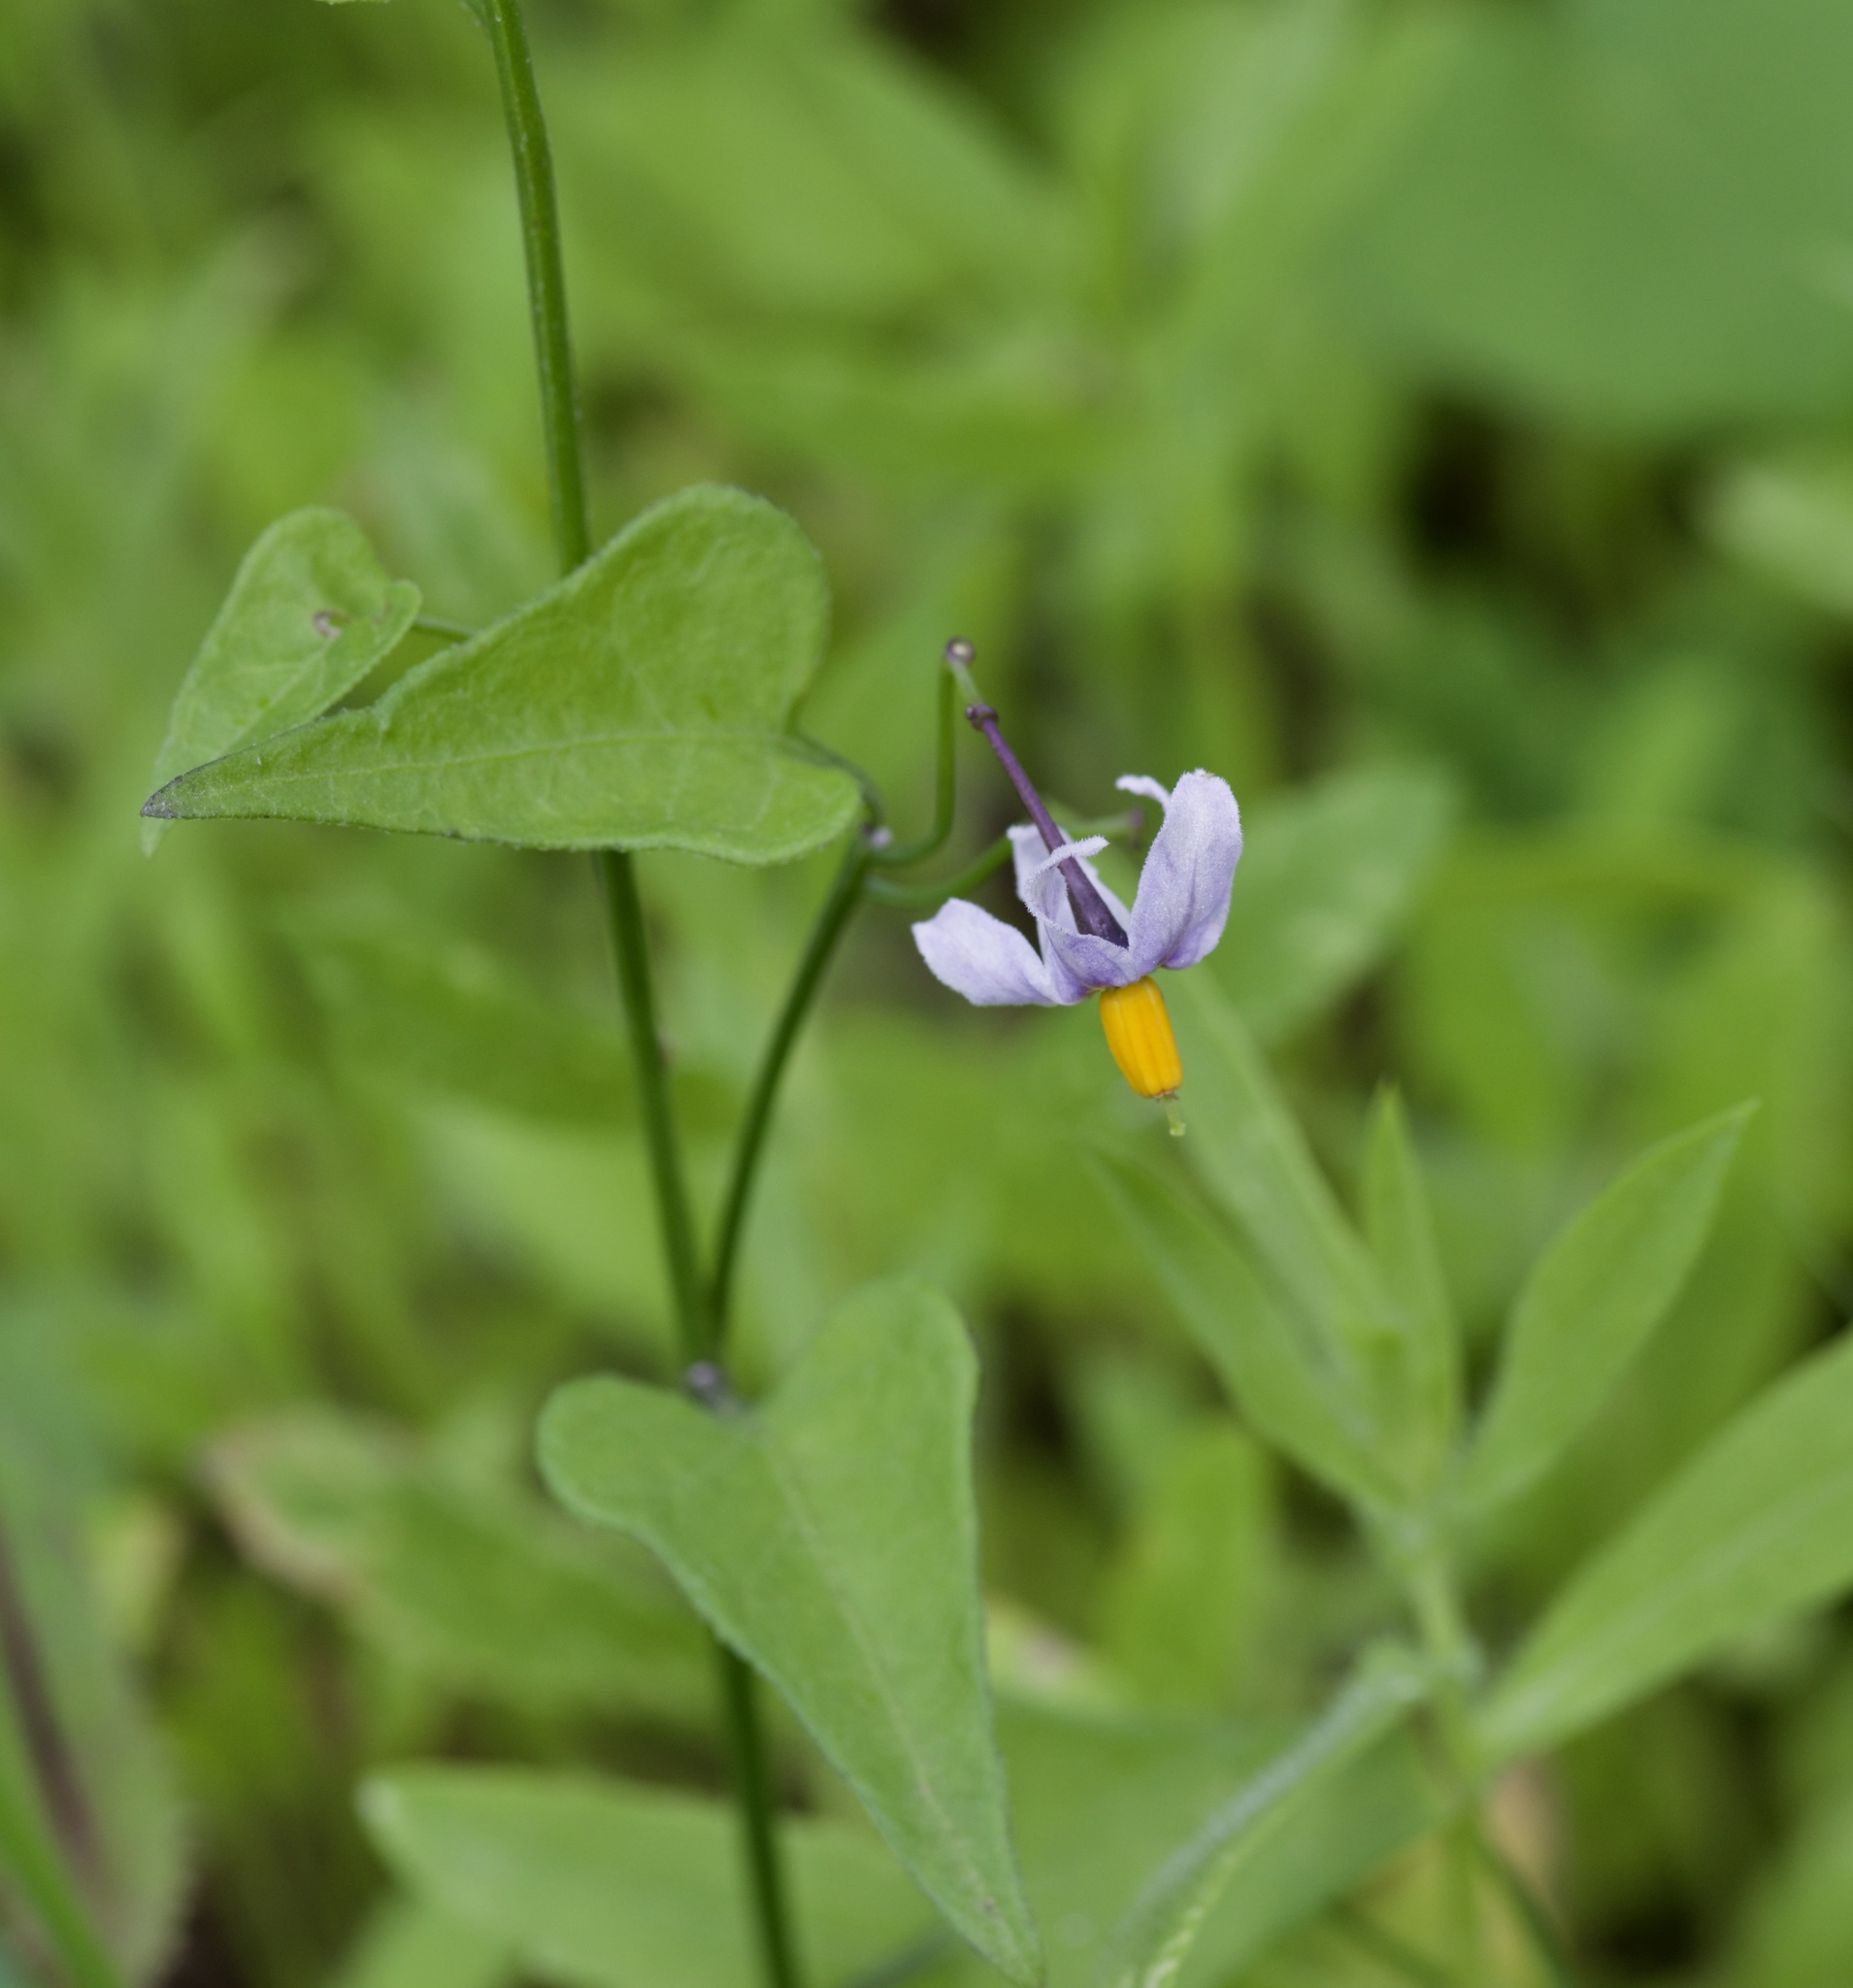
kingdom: Plantae
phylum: Tracheophyta
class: Magnoliopsida
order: Solanales
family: Solanaceae
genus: Solanum
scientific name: Solanum triquetrum
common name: Texas nightshade
